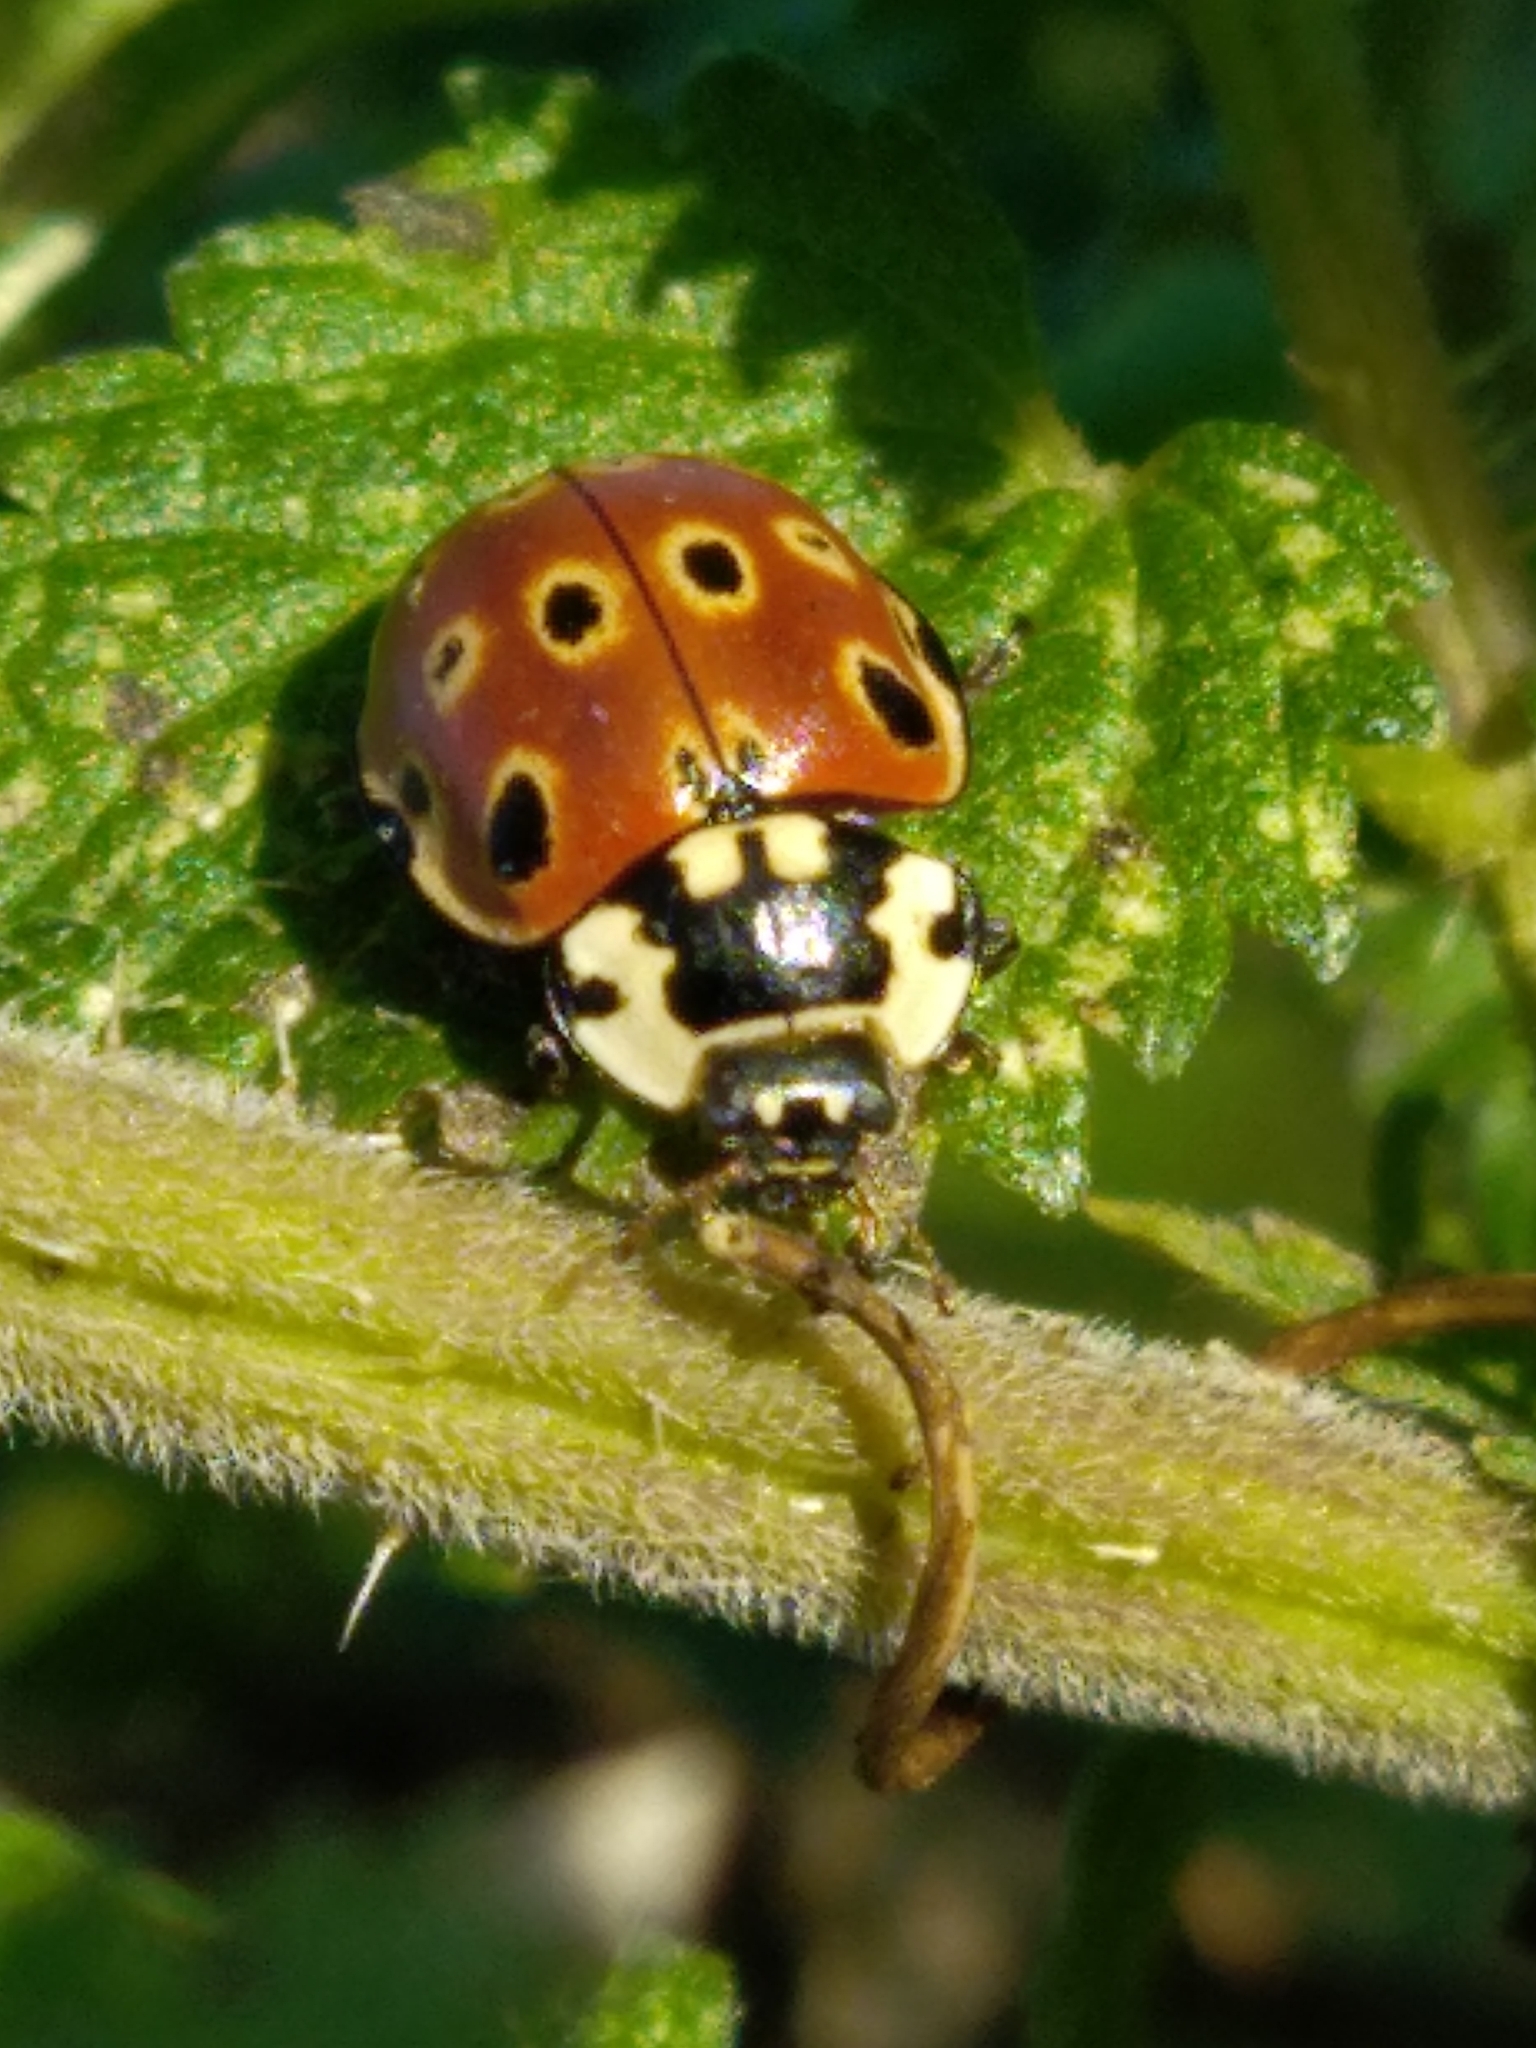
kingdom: Animalia
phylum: Arthropoda
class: Insecta
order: Coleoptera
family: Coccinellidae
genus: Anatis
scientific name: Anatis ocellata
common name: Eyed ladybird
